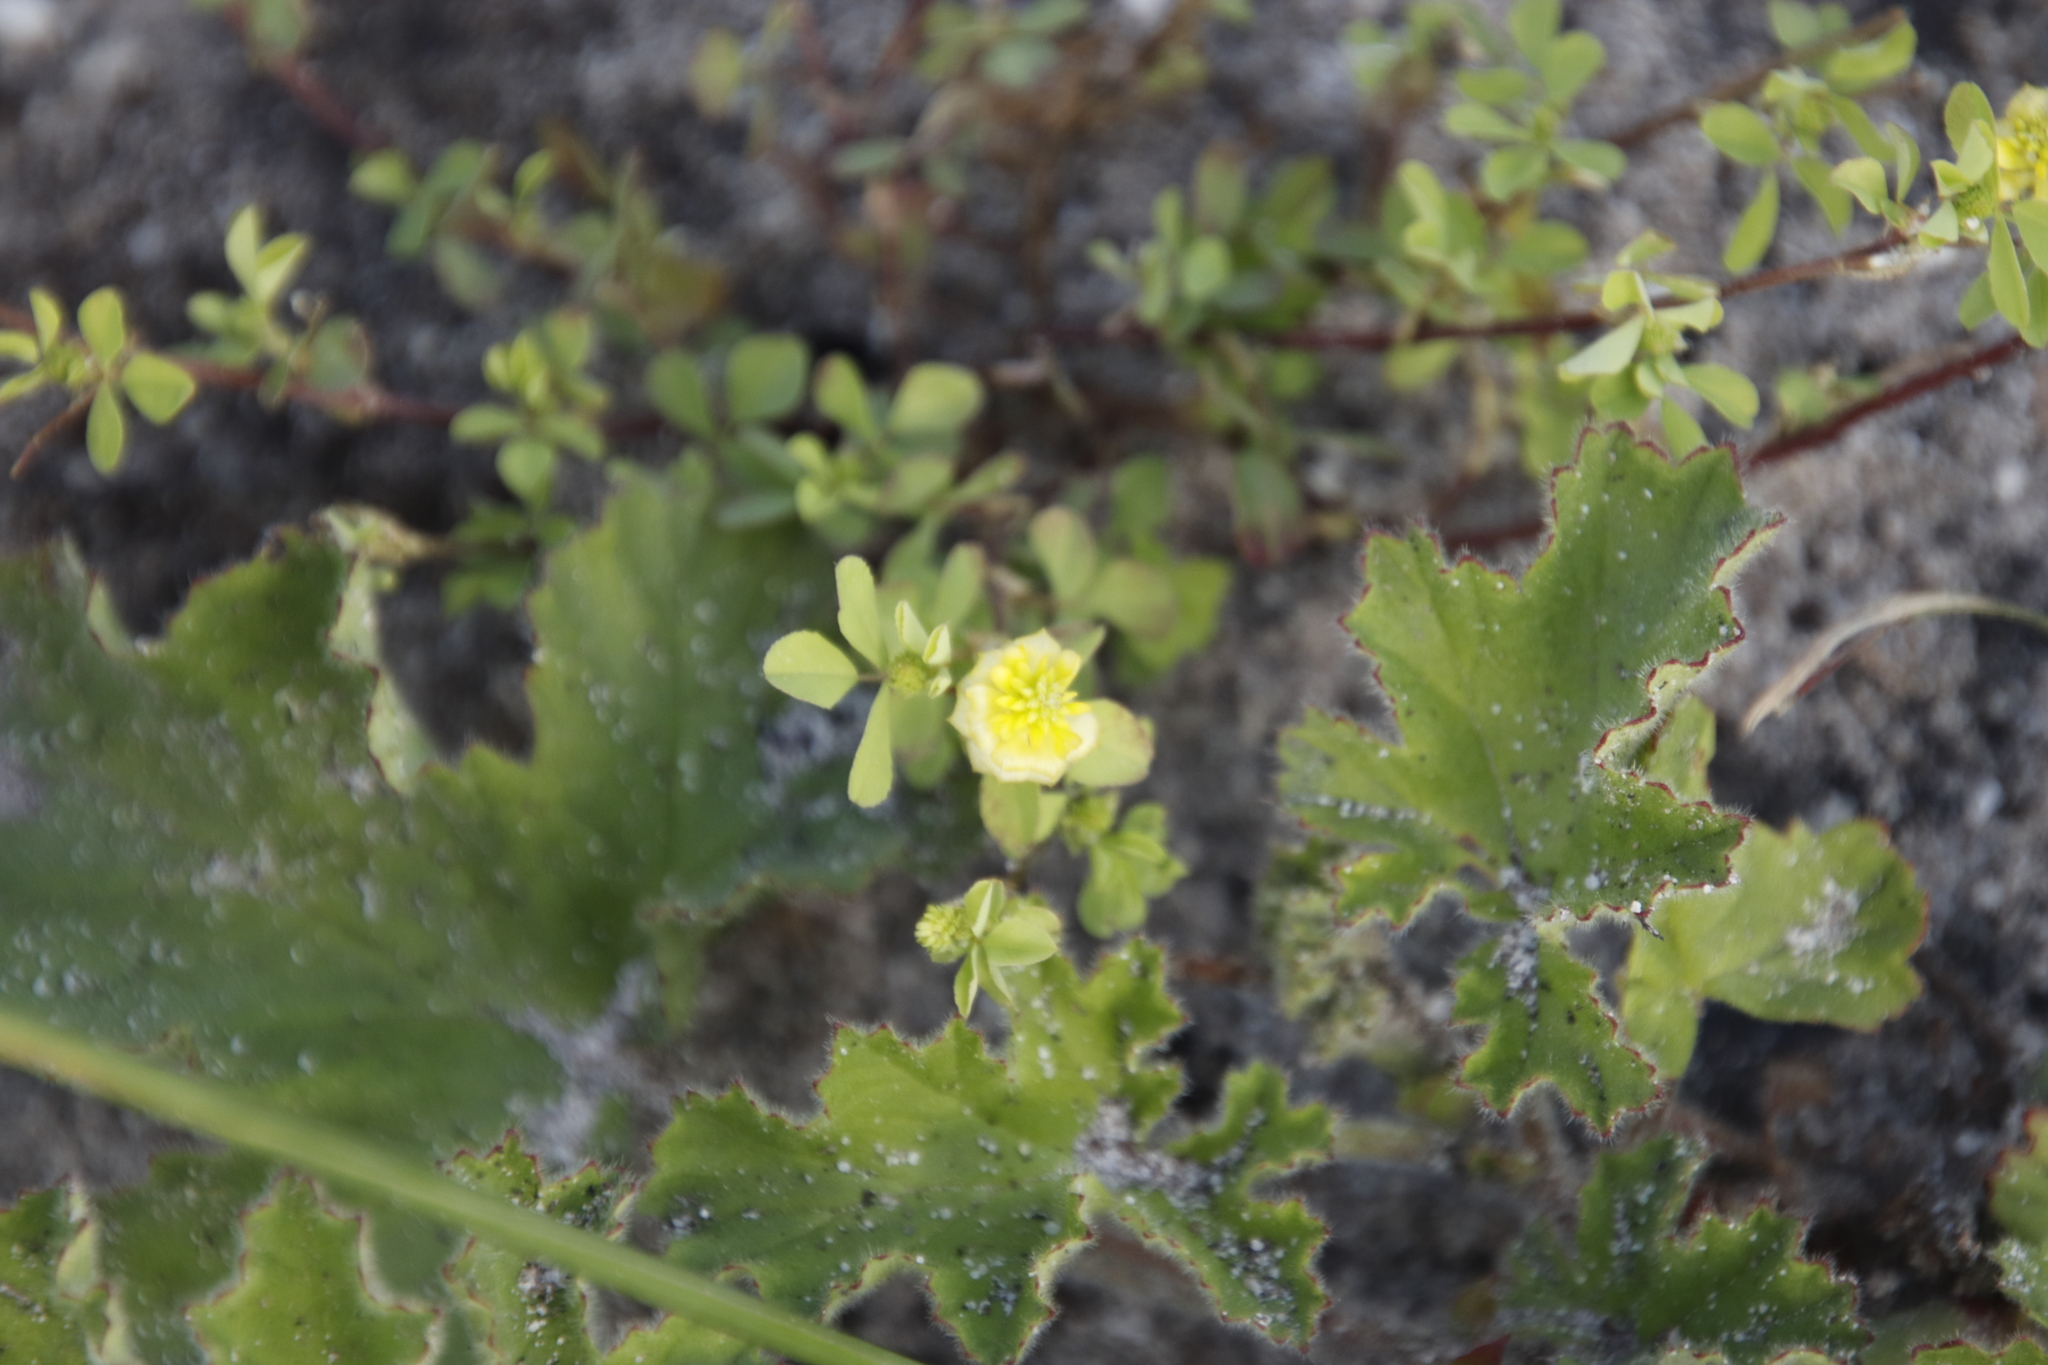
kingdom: Plantae
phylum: Tracheophyta
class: Magnoliopsida
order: Fabales
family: Fabaceae
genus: Trifolium
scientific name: Trifolium campestre
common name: Field clover
